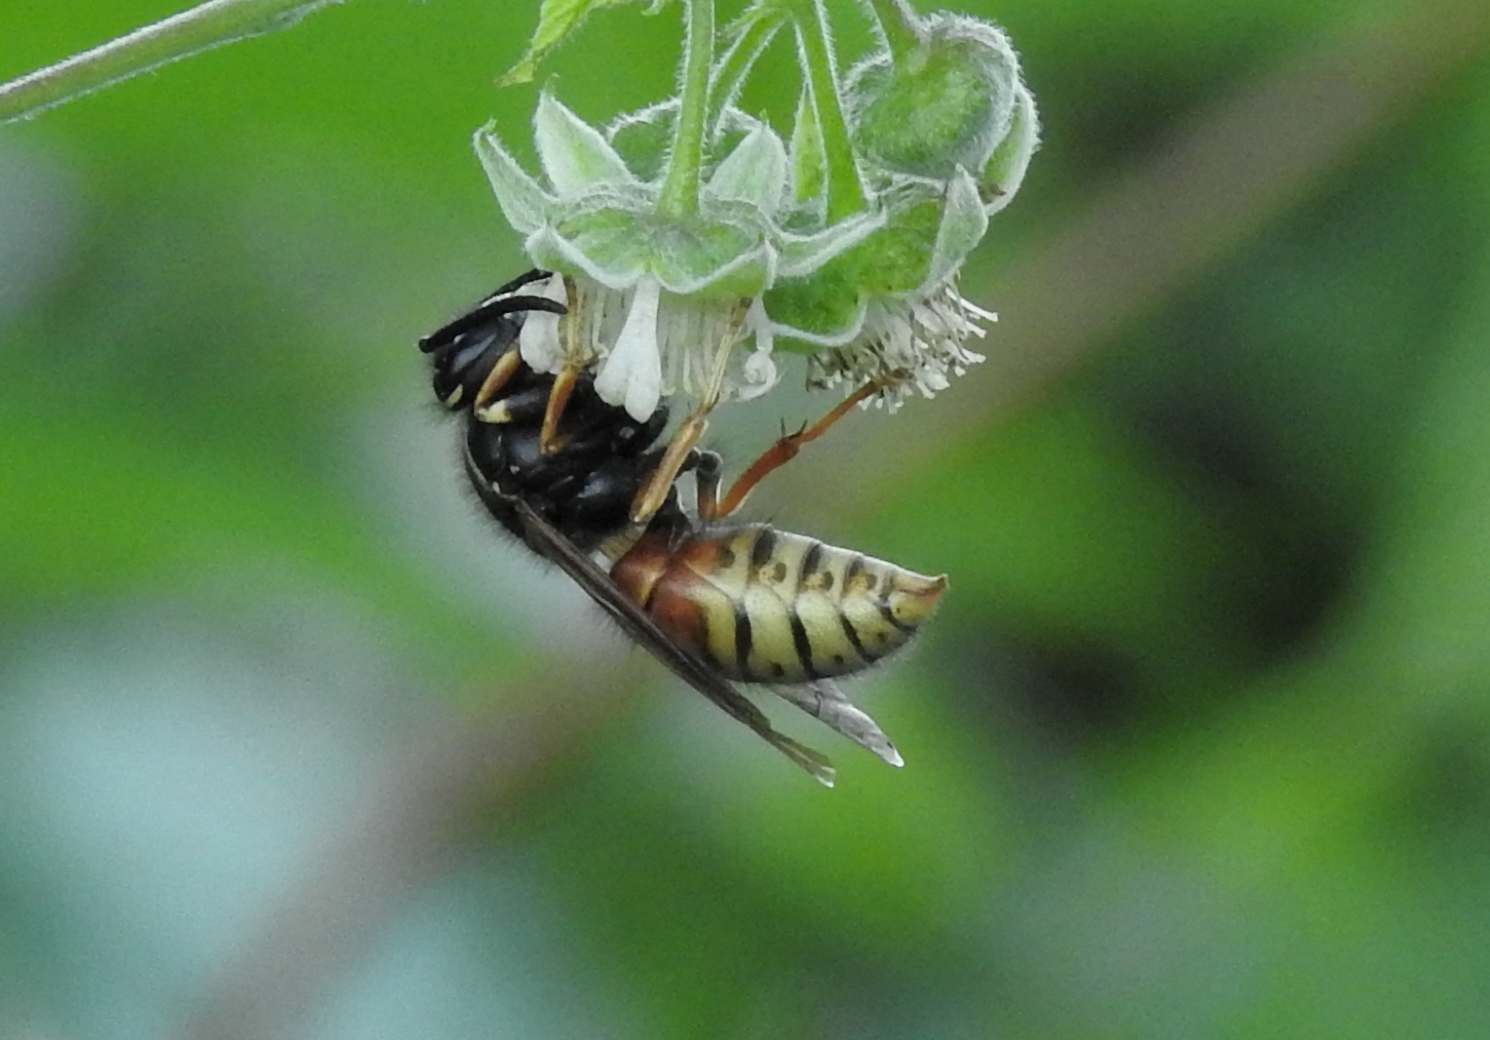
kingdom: Animalia
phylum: Arthropoda
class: Insecta
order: Hymenoptera
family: Vespidae
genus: Vespula
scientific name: Vespula rufa
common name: Red wasp
